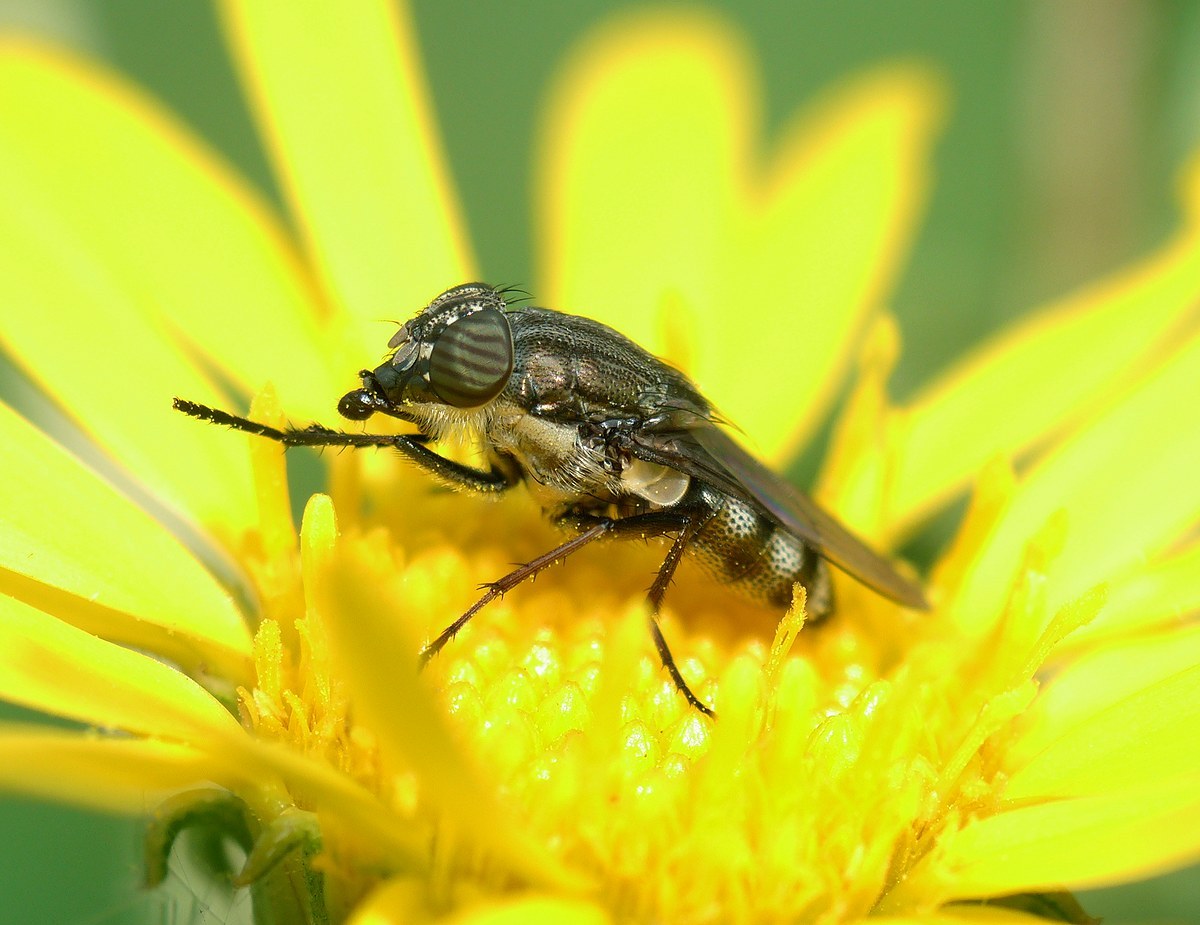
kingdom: Animalia
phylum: Arthropoda
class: Insecta
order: Diptera
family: Calliphoridae
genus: Stomorhina
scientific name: Stomorhina lunata
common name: Locust blowfly
